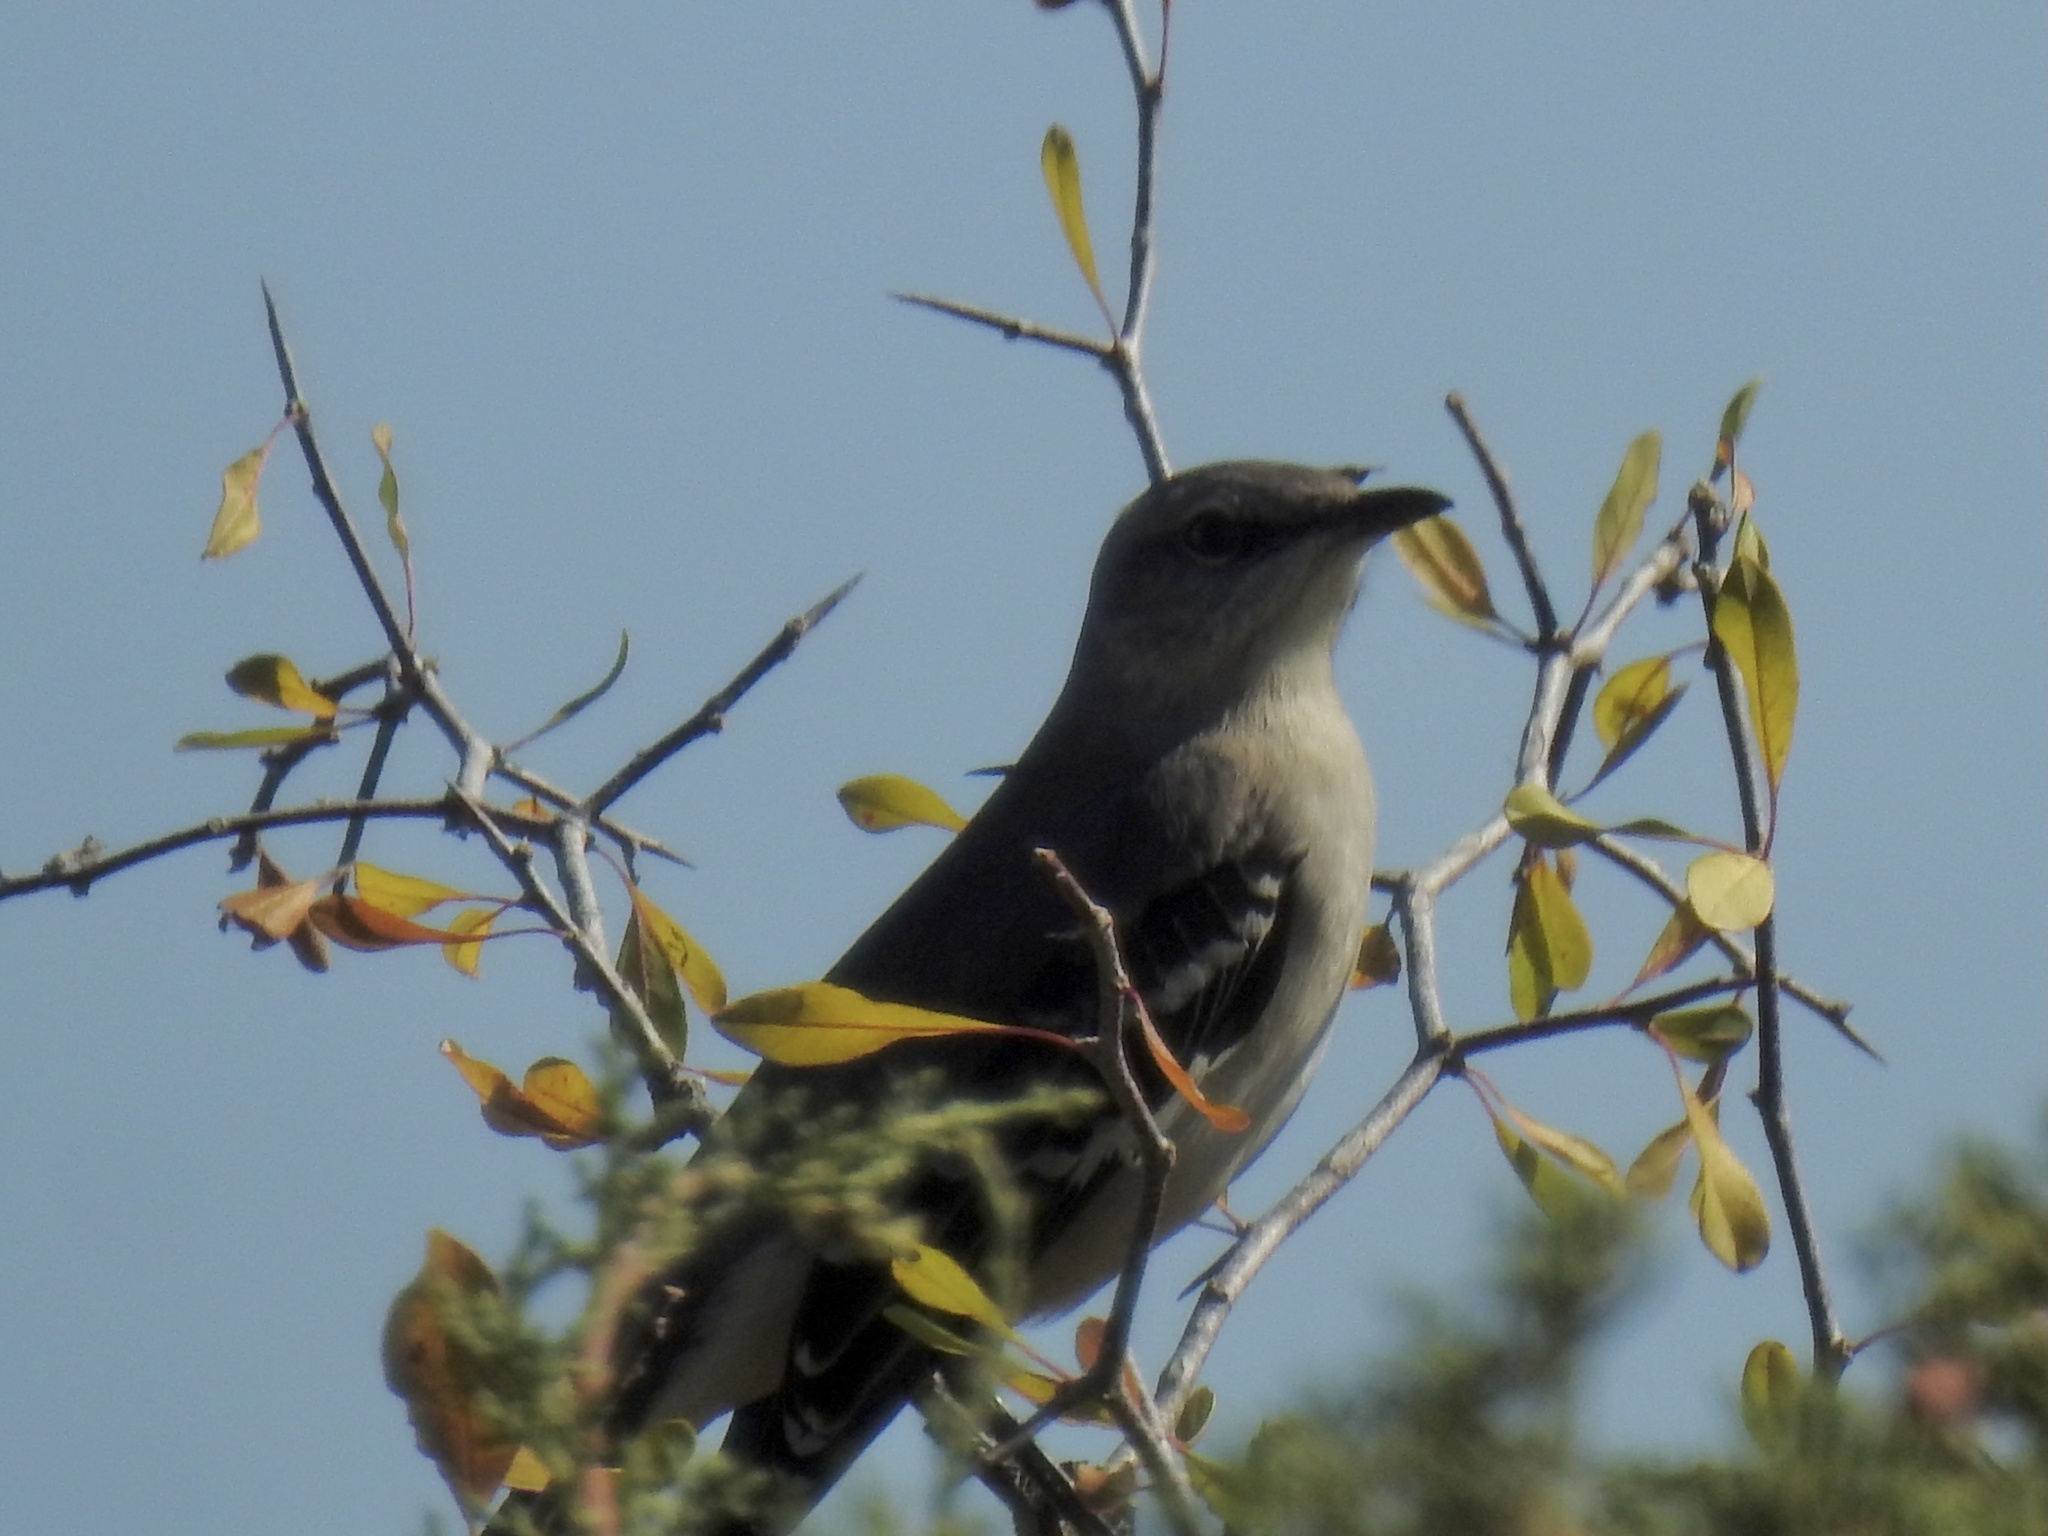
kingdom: Animalia
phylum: Chordata
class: Aves
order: Passeriformes
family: Mimidae
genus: Mimus
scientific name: Mimus polyglottos
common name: Northern mockingbird
